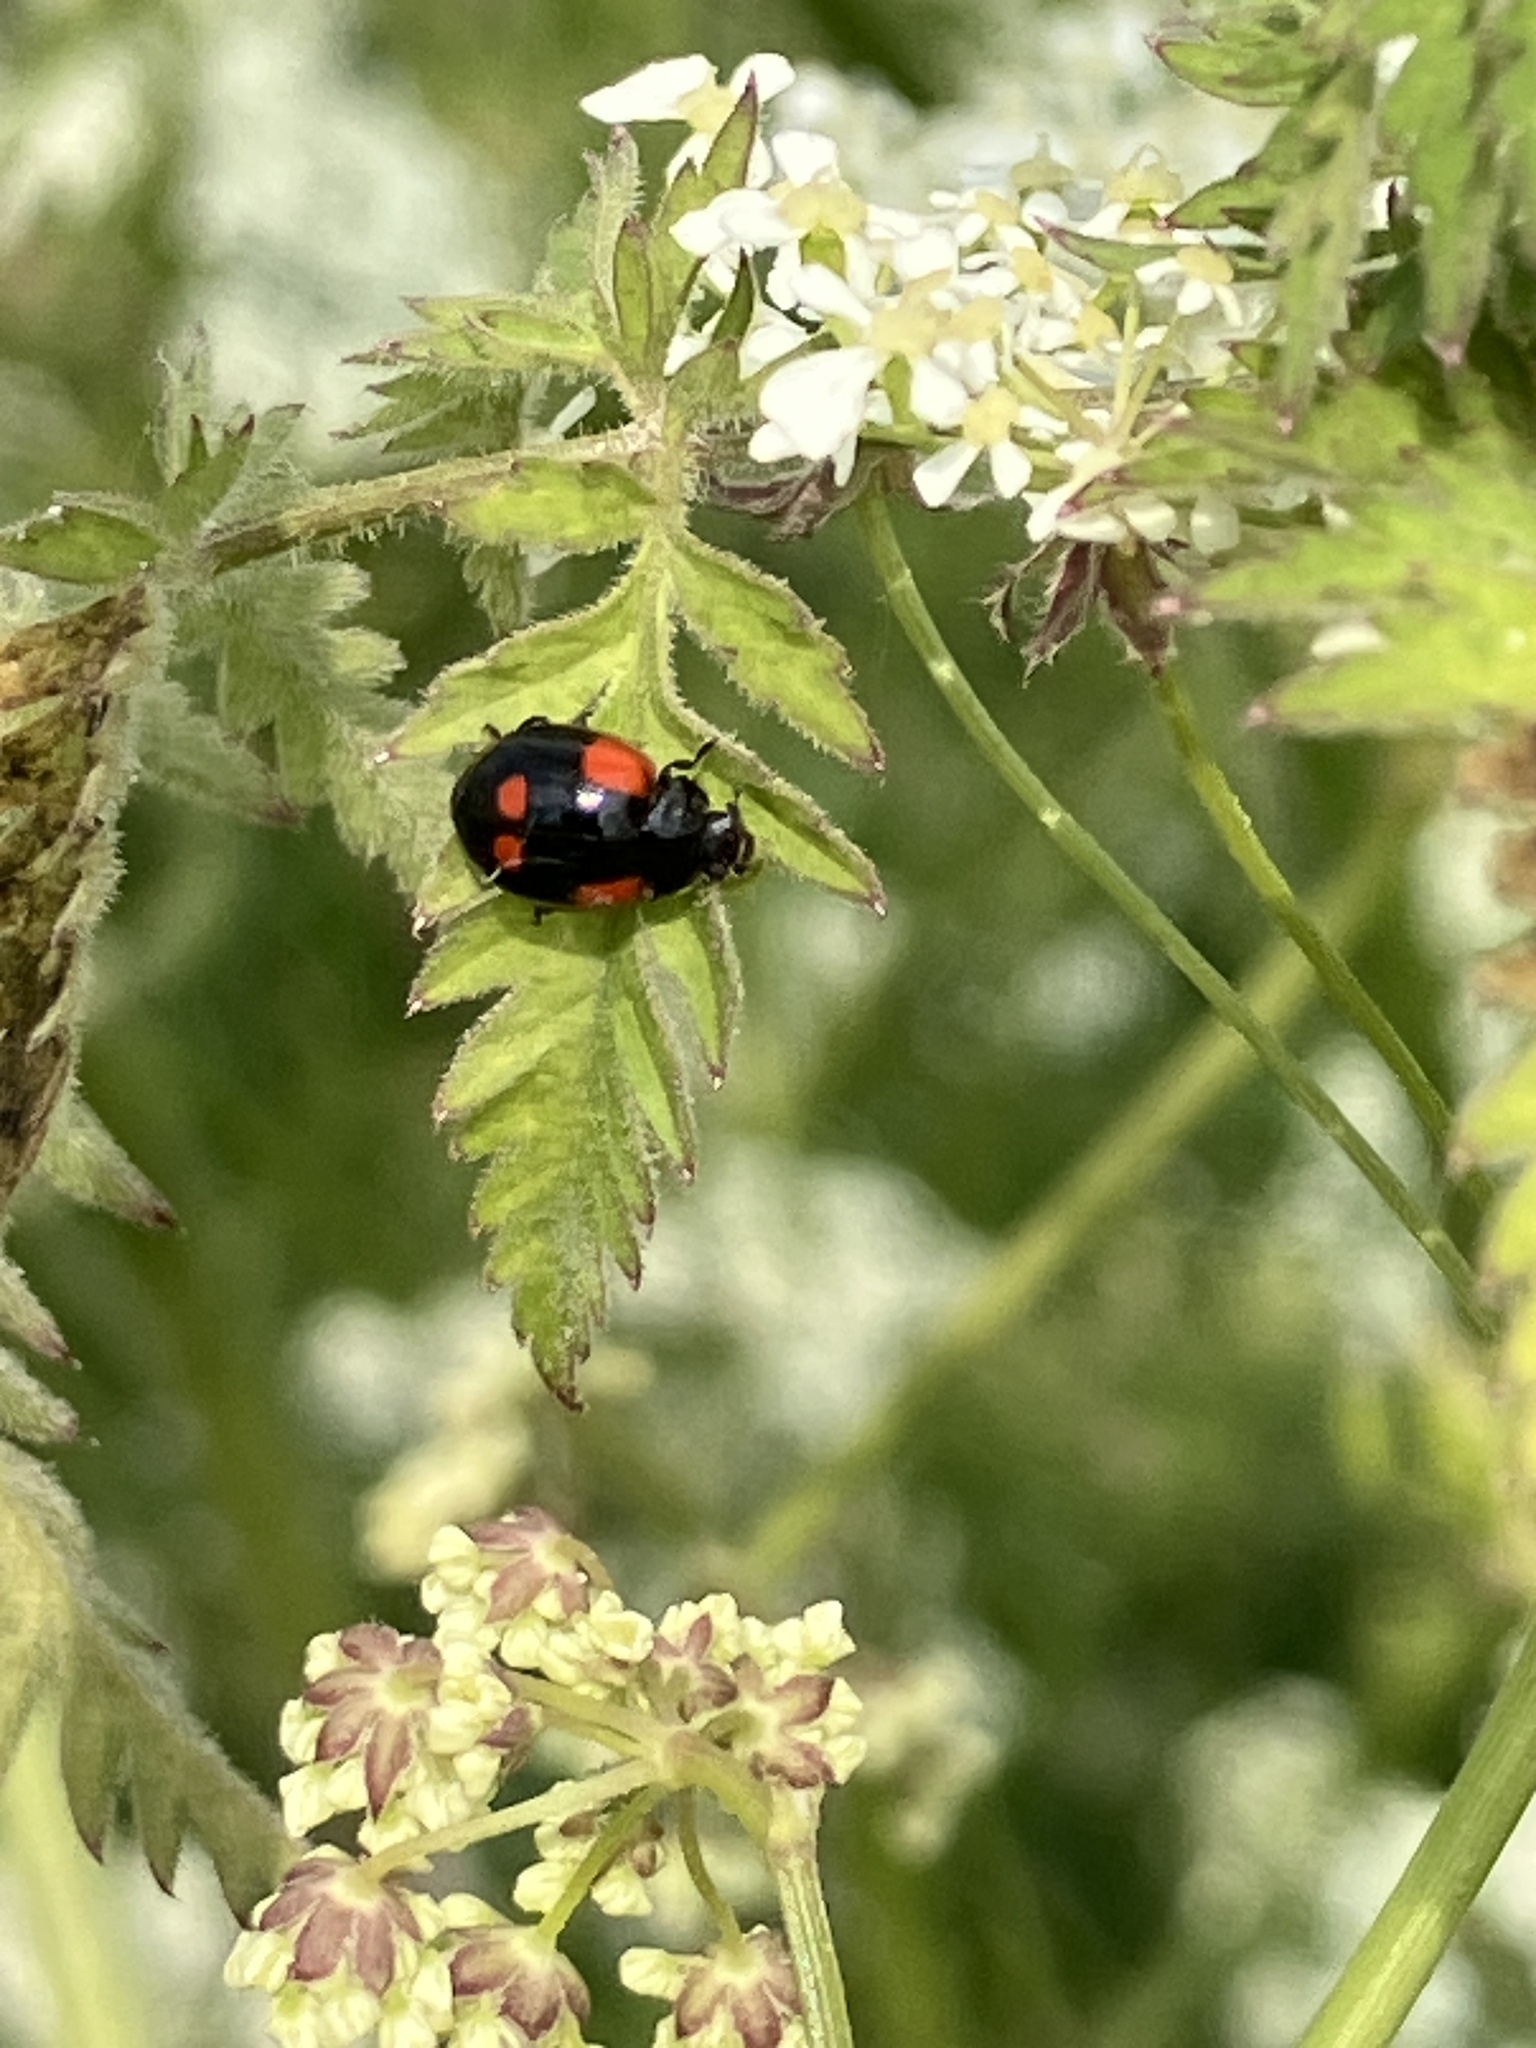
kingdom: Animalia
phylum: Arthropoda
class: Insecta
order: Coleoptera
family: Coccinellidae
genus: Adalia
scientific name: Adalia bipunctata
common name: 2-spot ladybird
